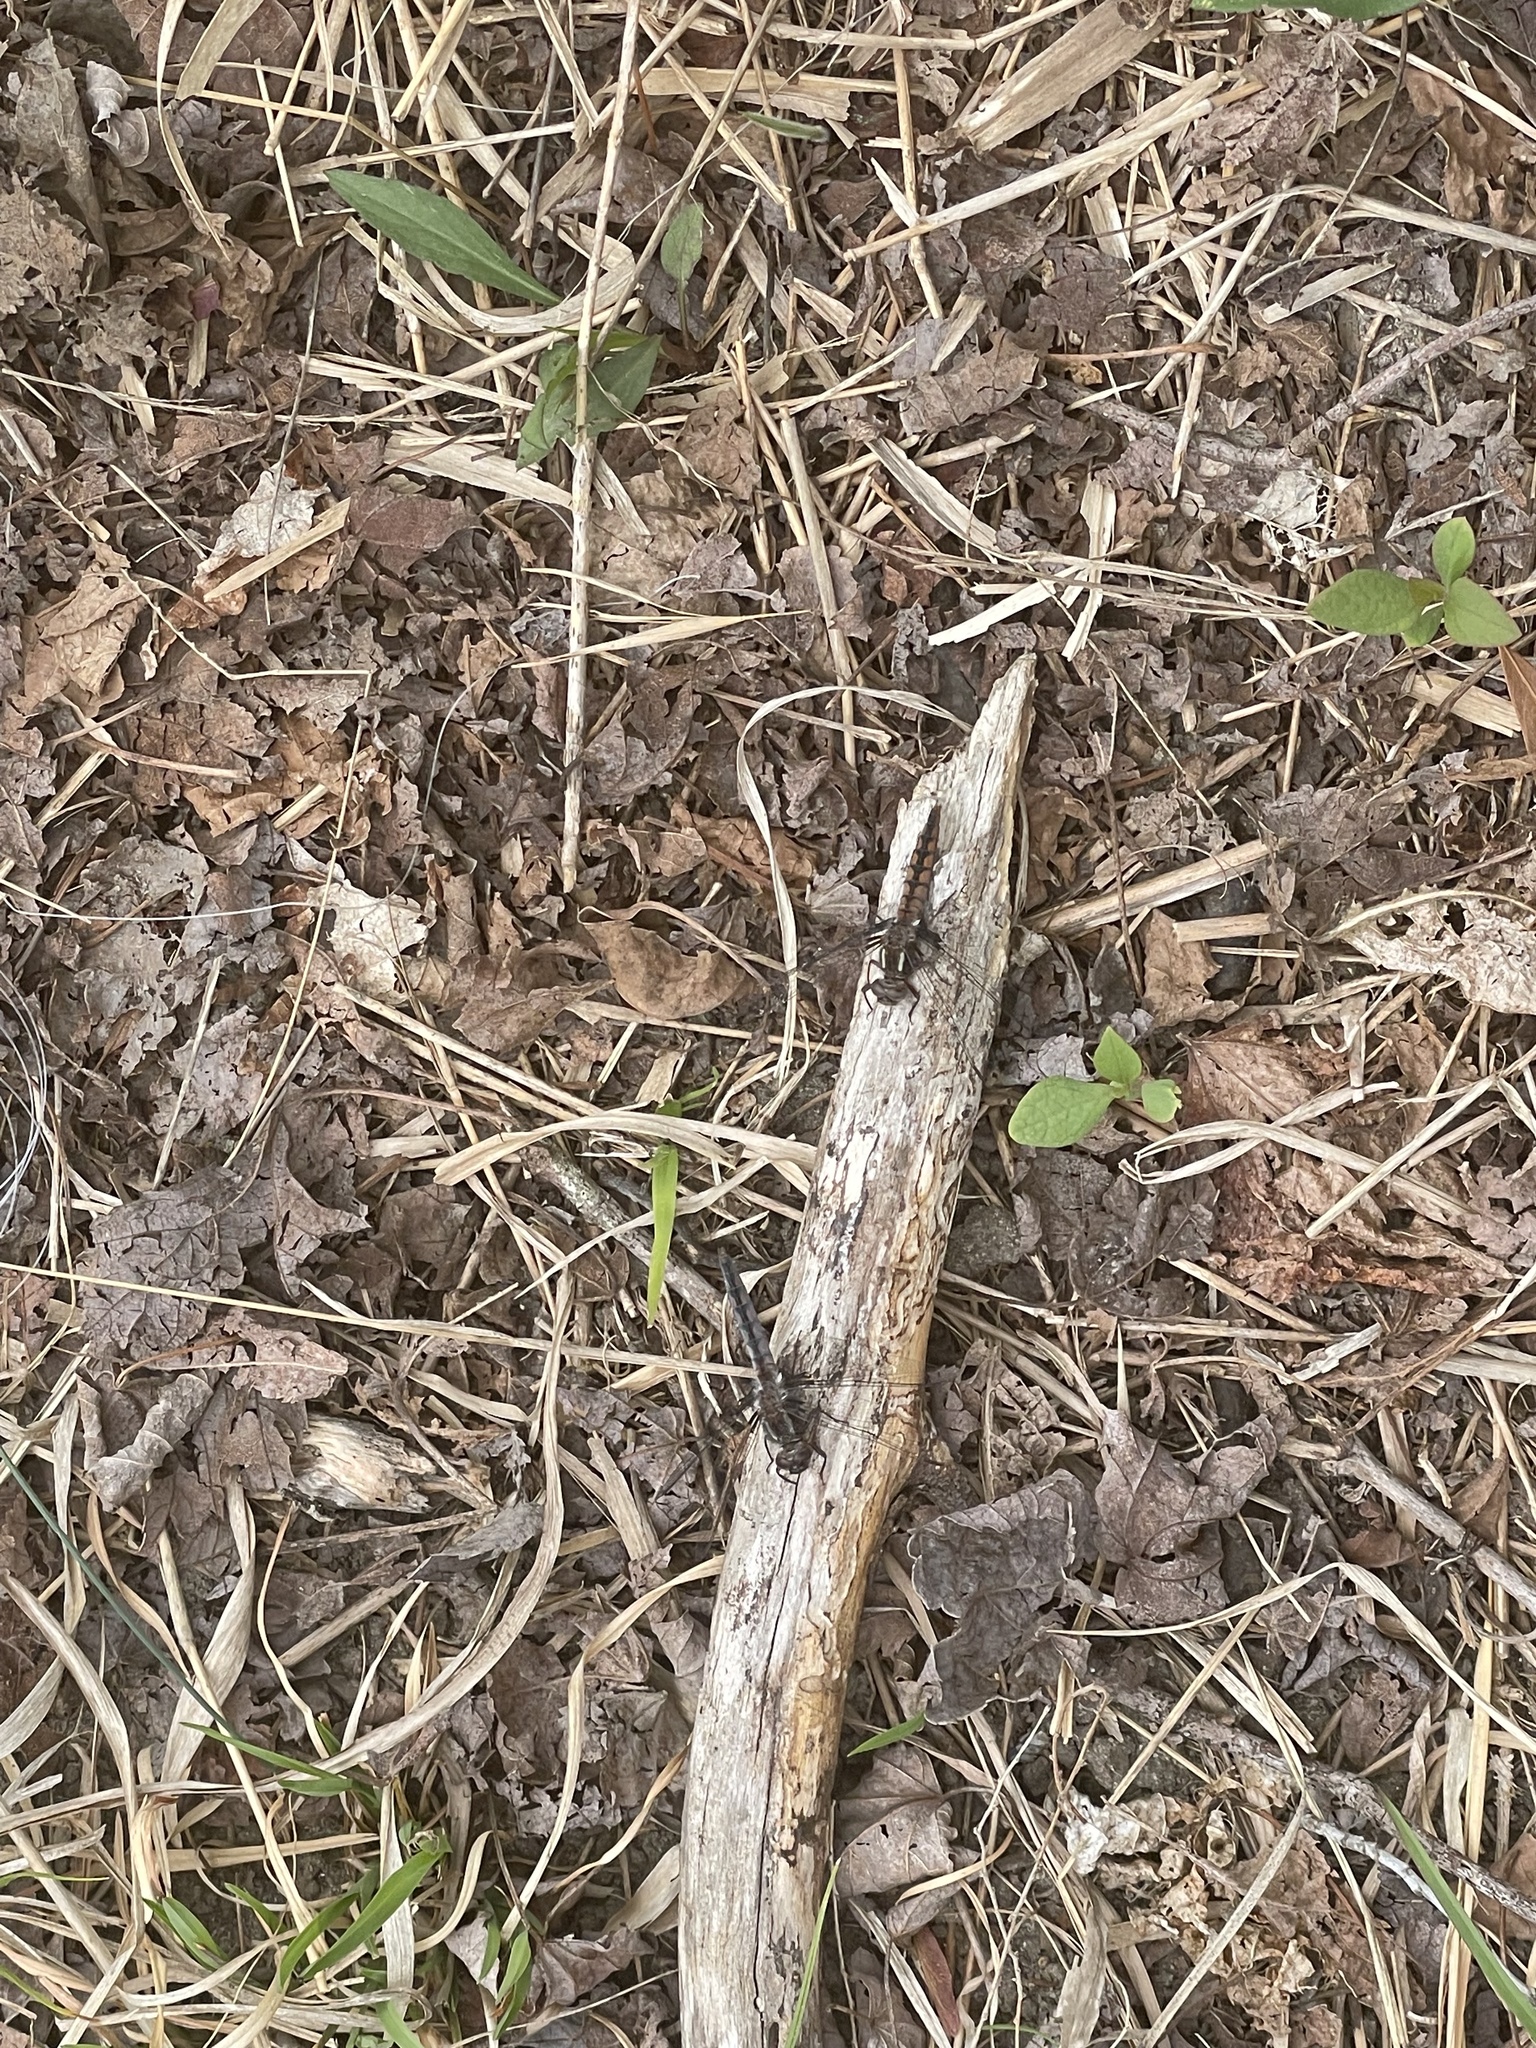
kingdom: Animalia
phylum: Arthropoda
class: Insecta
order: Odonata
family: Libellulidae
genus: Ladona
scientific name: Ladona deplanata
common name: Blue corporal
